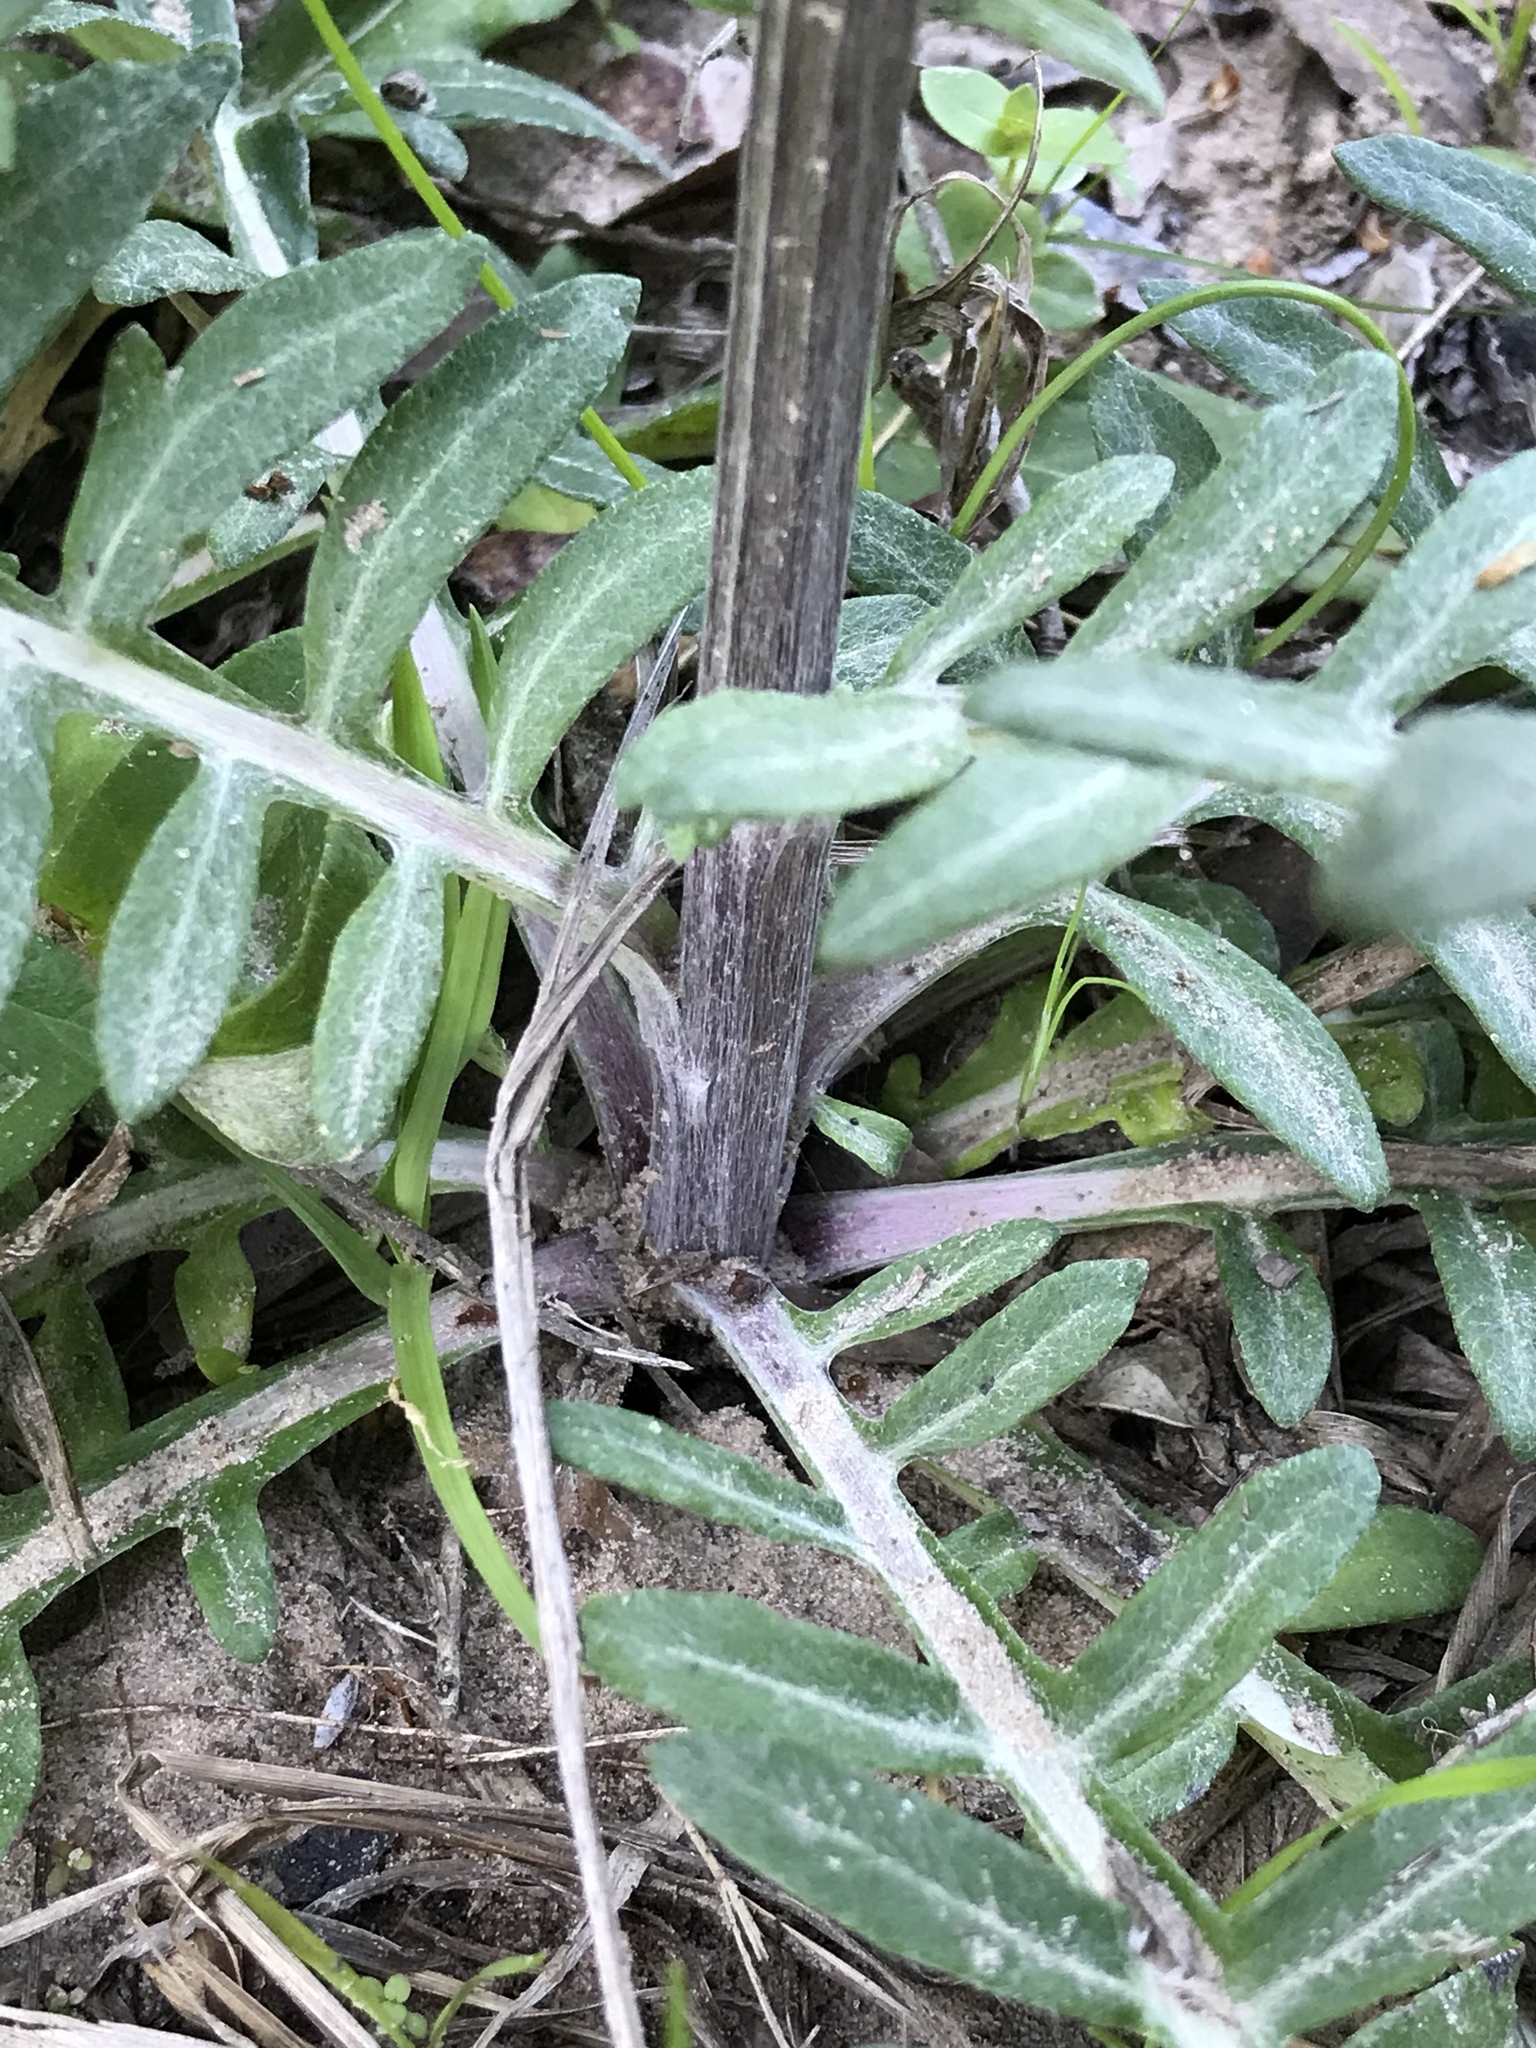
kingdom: Plantae
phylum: Tracheophyta
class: Magnoliopsida
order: Asterales
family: Asteraceae
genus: Hymenopappus
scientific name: Hymenopappus artemisiifolius
